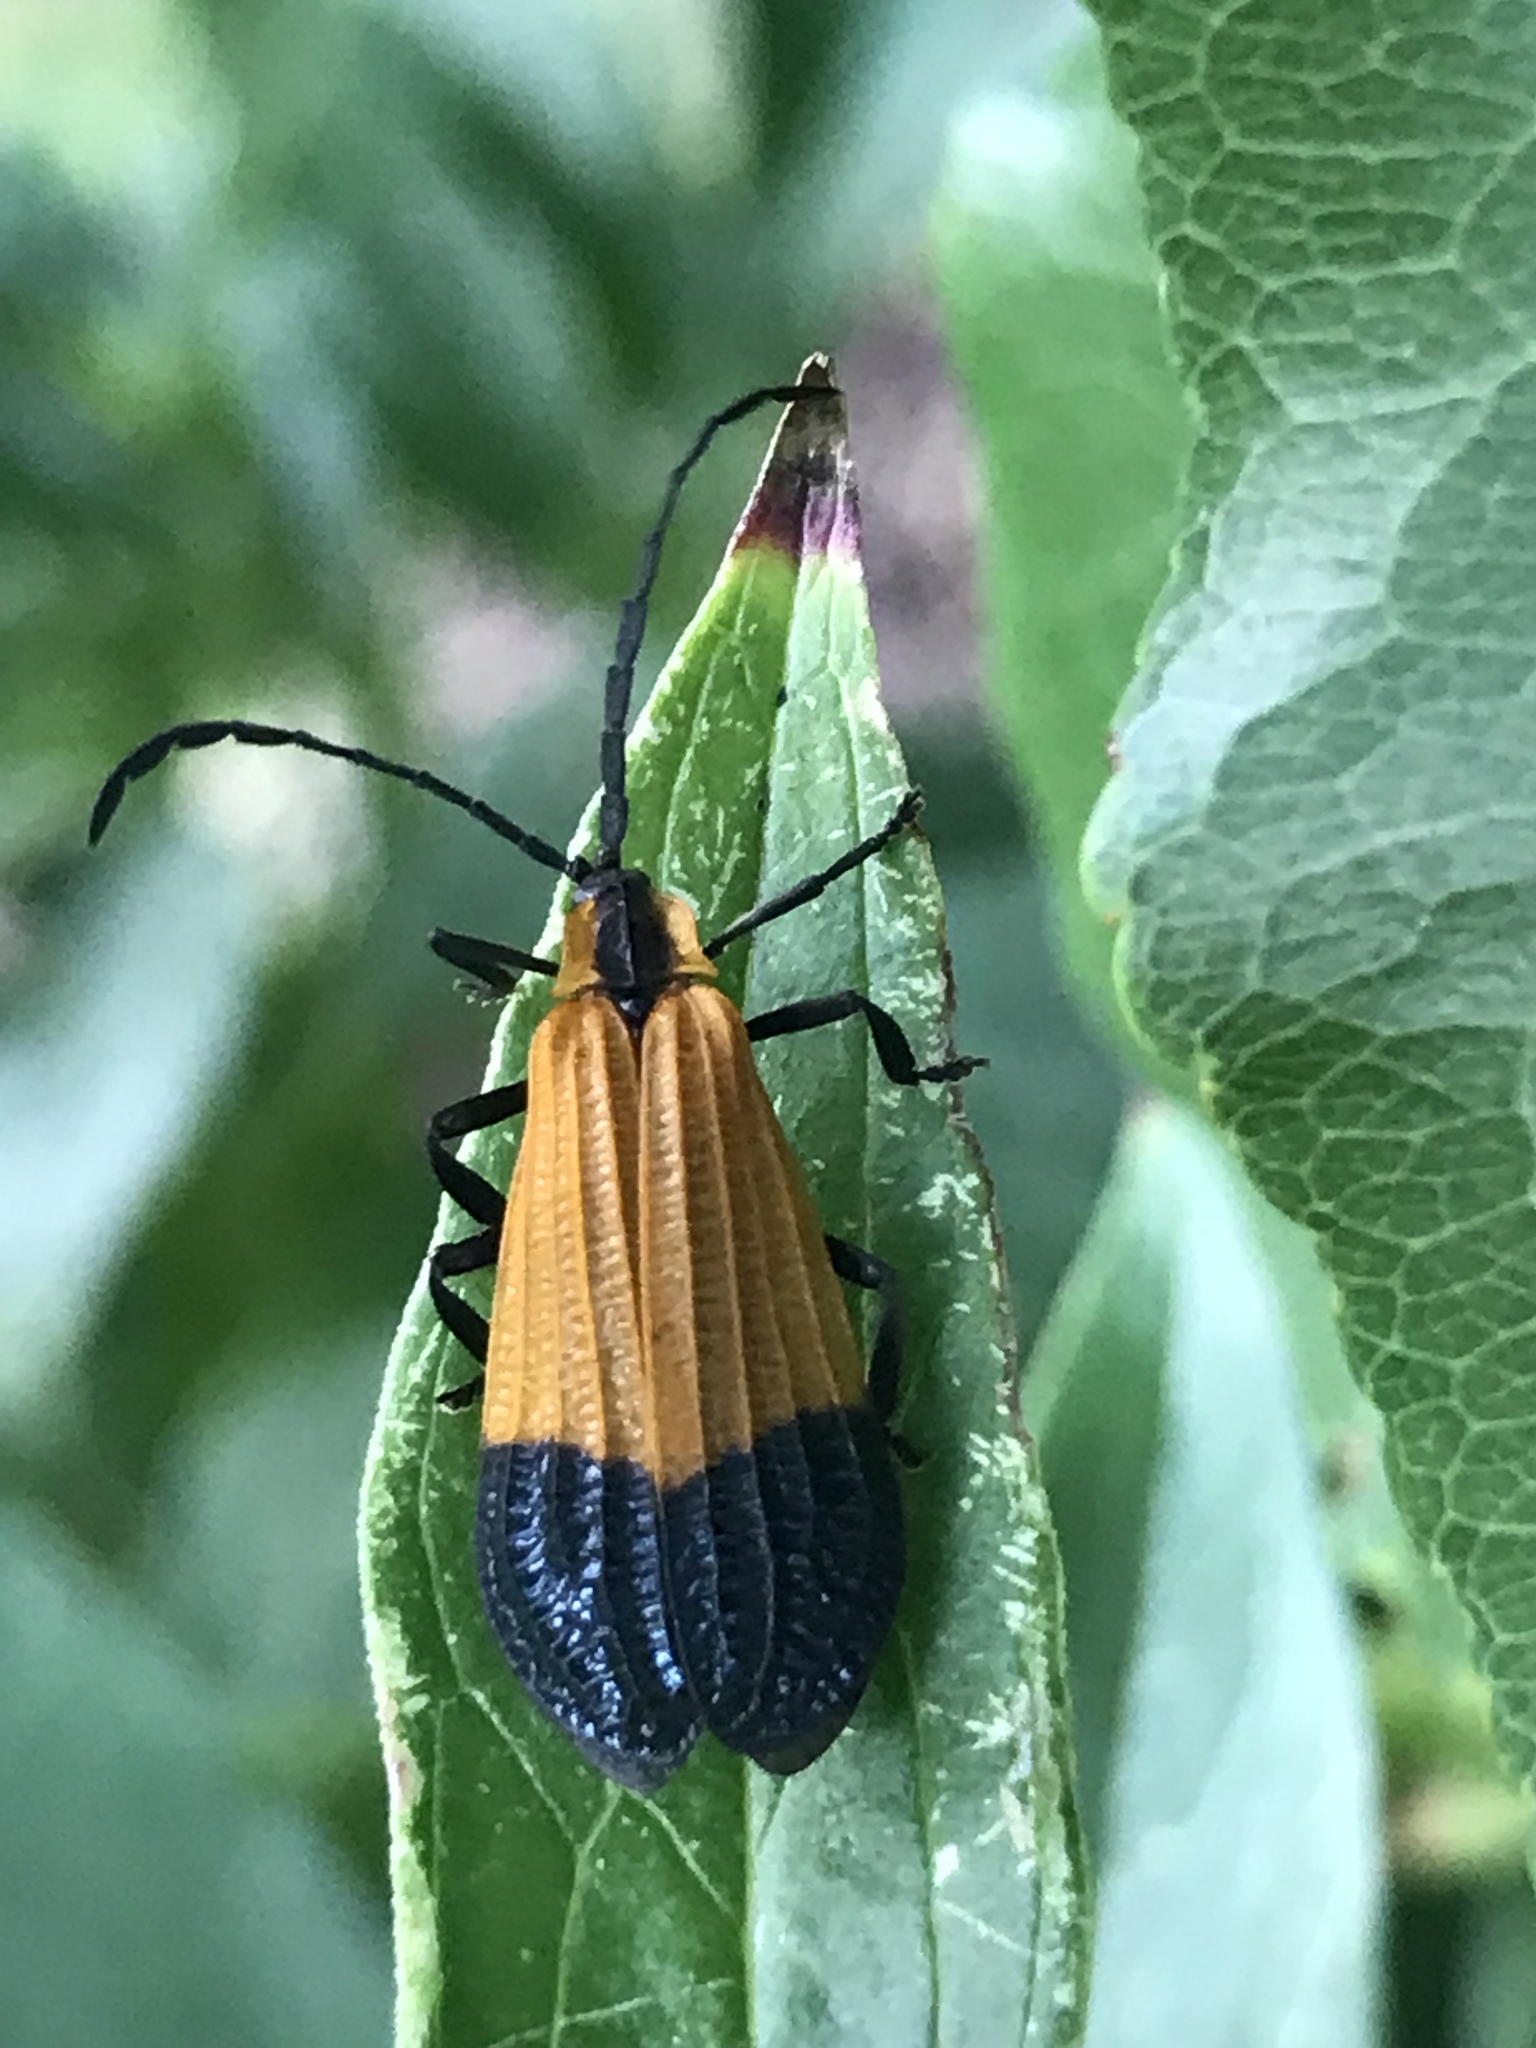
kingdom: Animalia
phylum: Arthropoda
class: Insecta
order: Coleoptera
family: Lycidae
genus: Calopteron
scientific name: Calopteron terminale
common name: End band net-winged beetle
